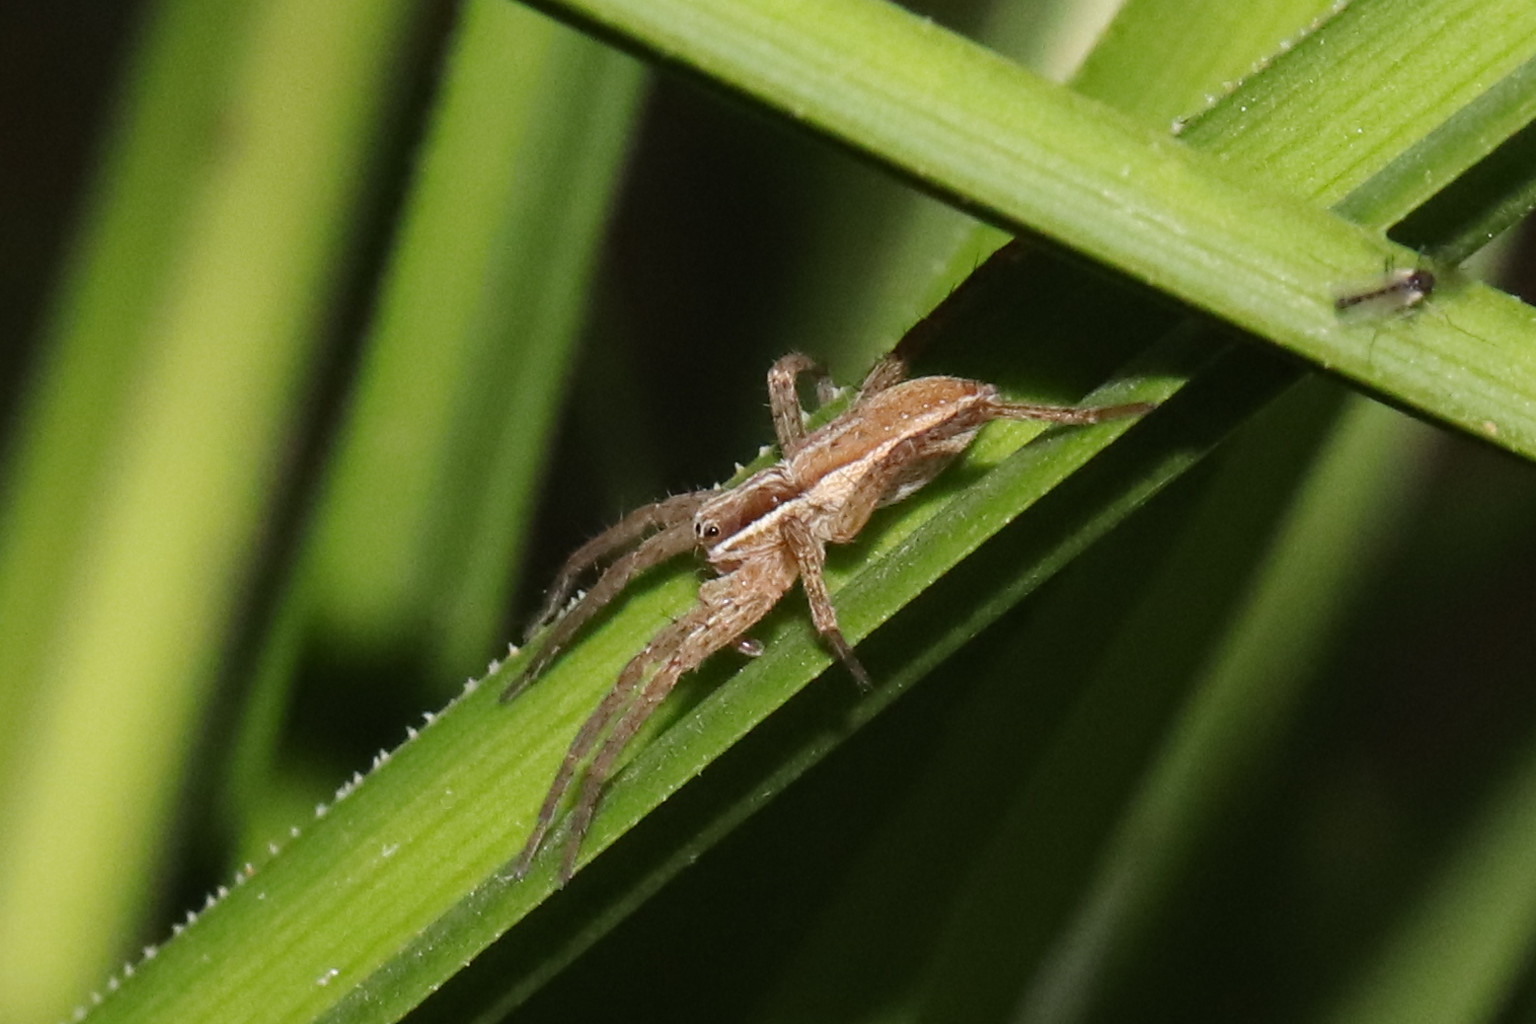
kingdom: Animalia
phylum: Arthropoda
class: Arachnida
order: Araneae
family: Pisauridae
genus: Dolomedes
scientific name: Dolomedes minor
